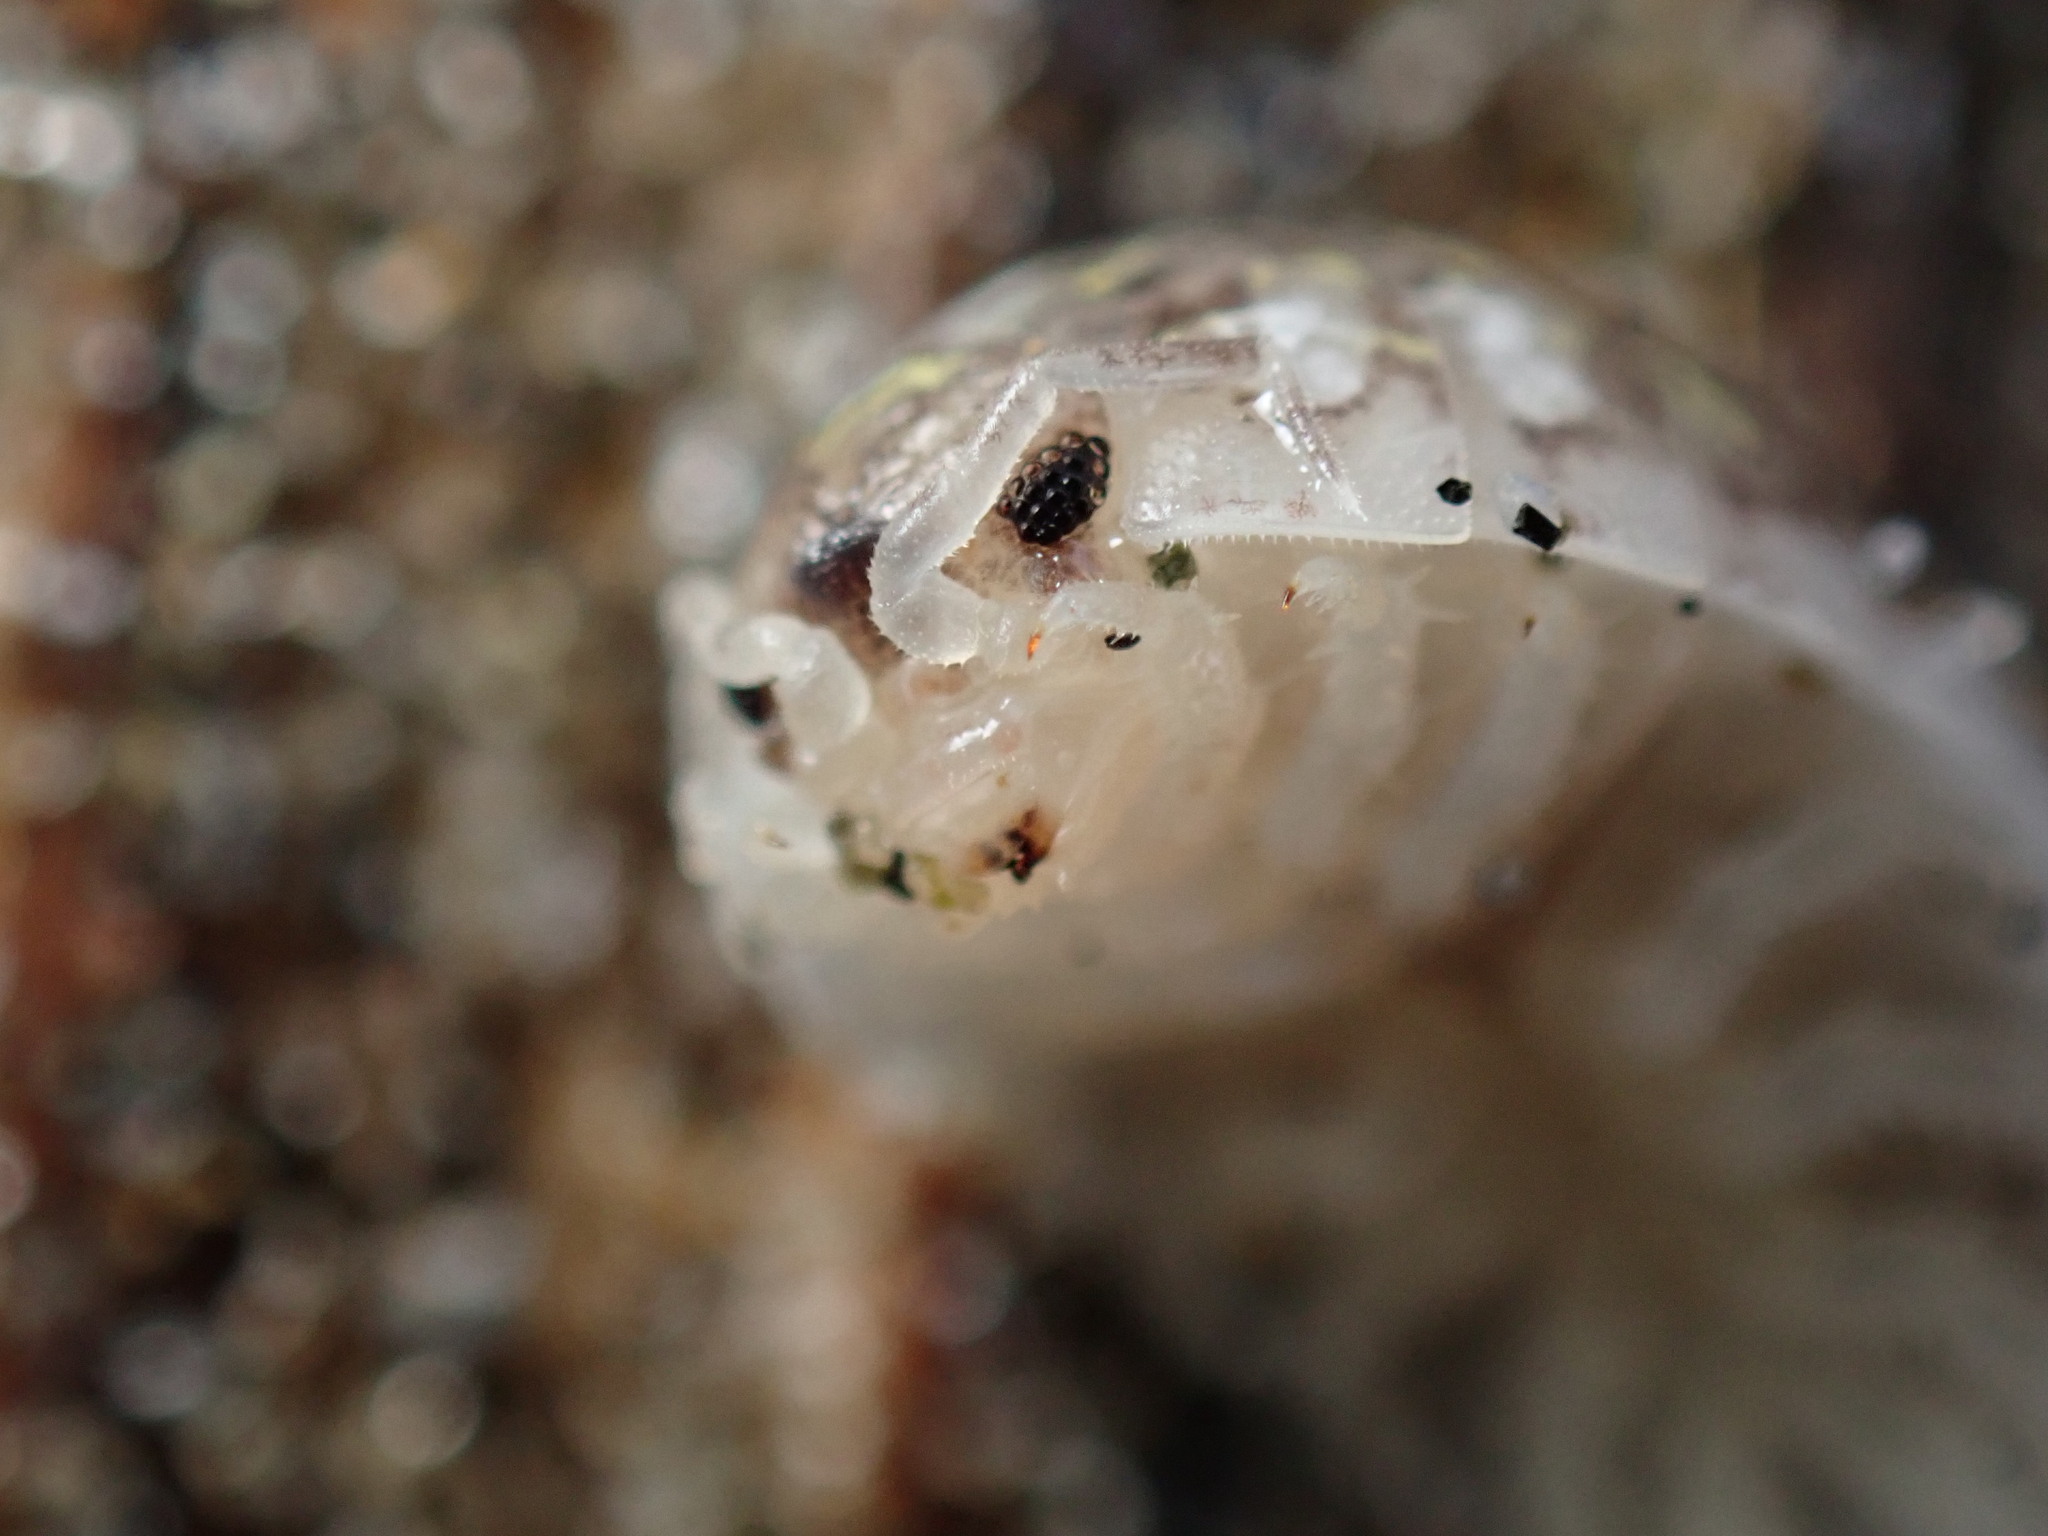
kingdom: Animalia
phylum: Arthropoda
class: Malacostraca
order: Isopoda
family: Alloniscidae
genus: Alloniscus
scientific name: Alloniscus perconvexus
